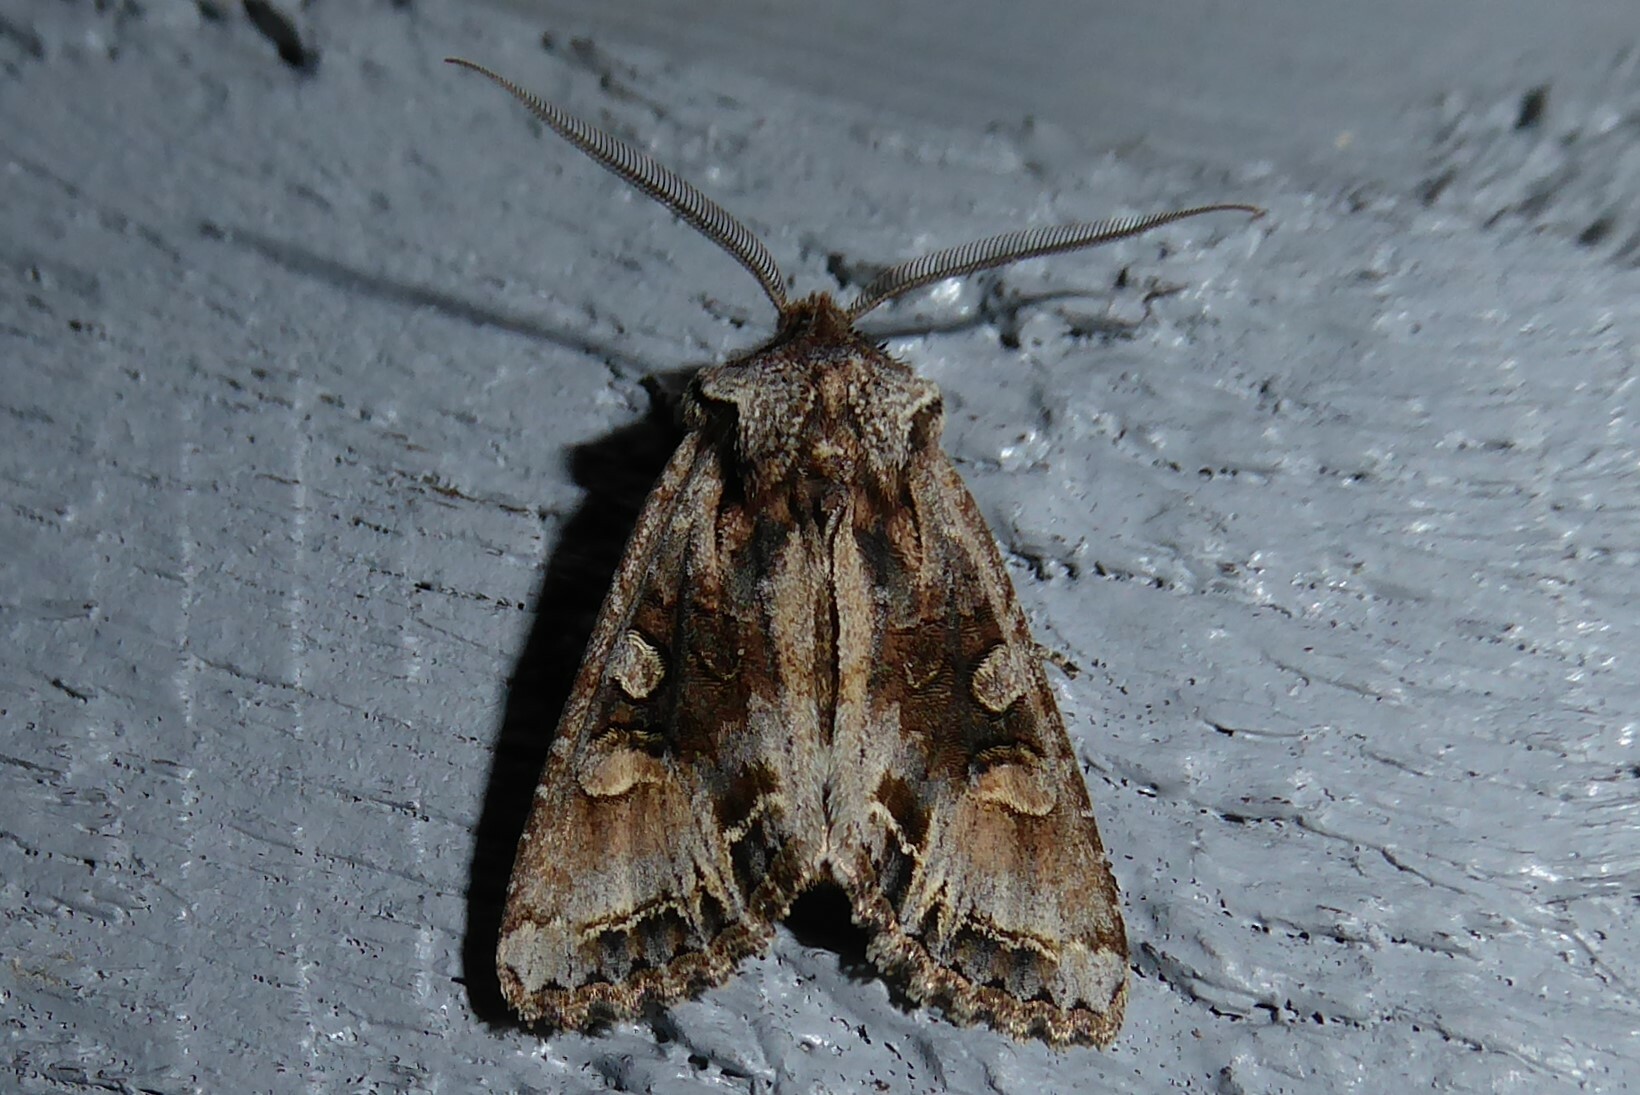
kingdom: Animalia
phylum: Arthropoda
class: Insecta
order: Lepidoptera
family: Noctuidae
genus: Ichneutica
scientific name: Ichneutica
